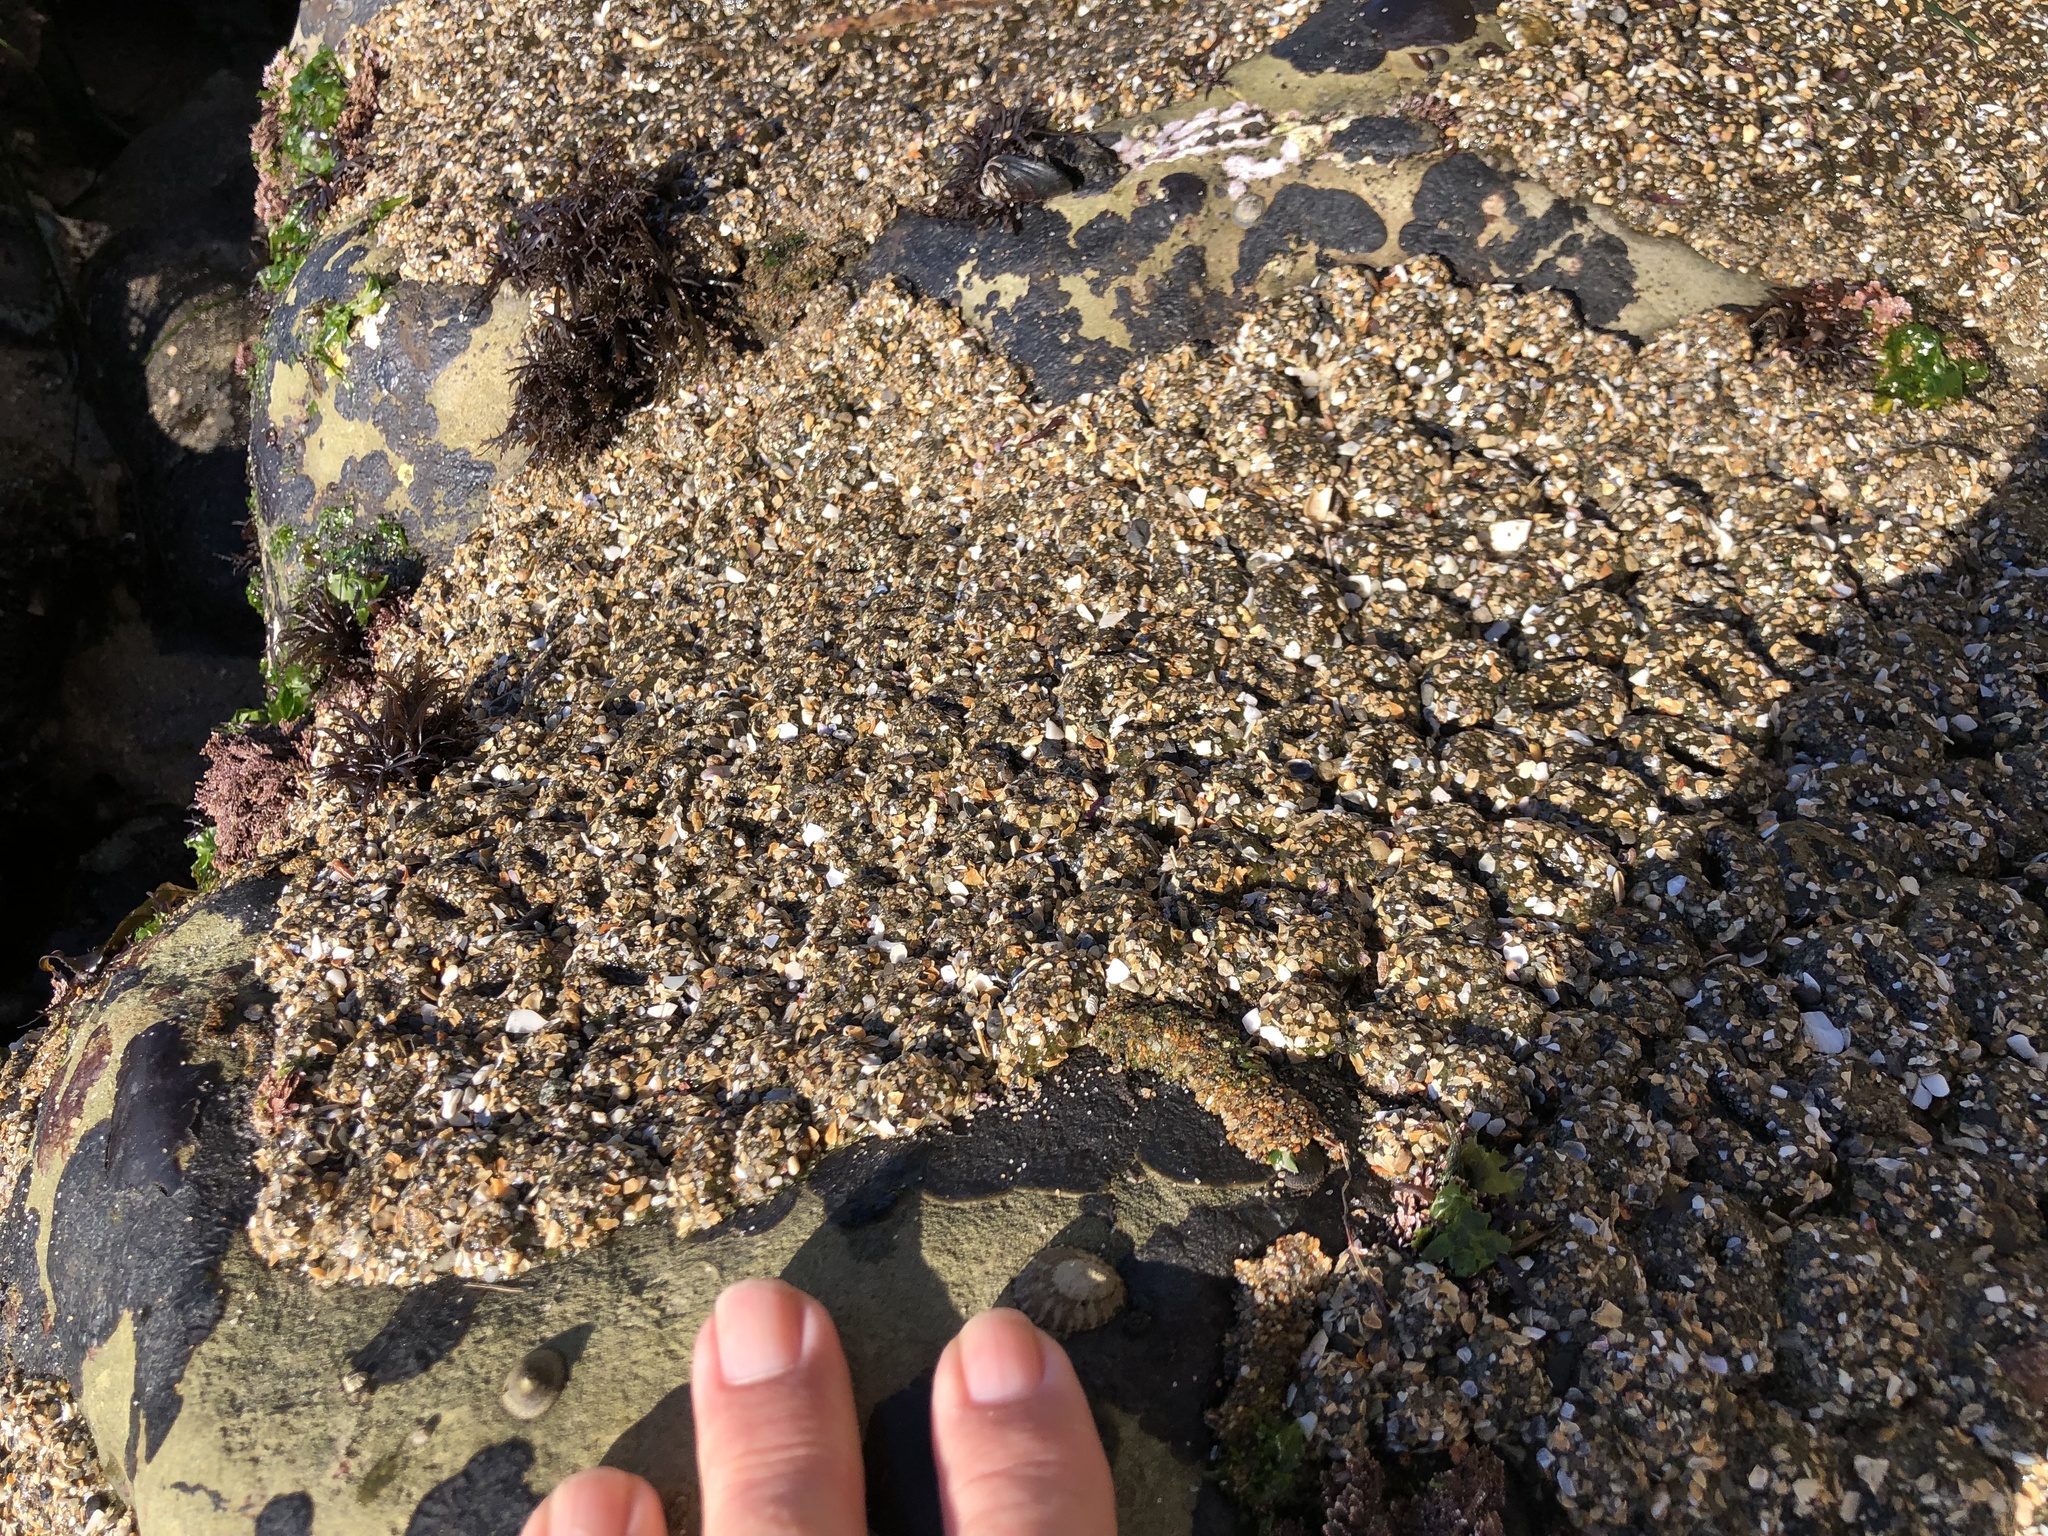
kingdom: Animalia
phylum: Cnidaria
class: Anthozoa
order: Actiniaria
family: Actiniidae
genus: Anthopleura
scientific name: Anthopleura elegantissima
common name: Clonal anemone
